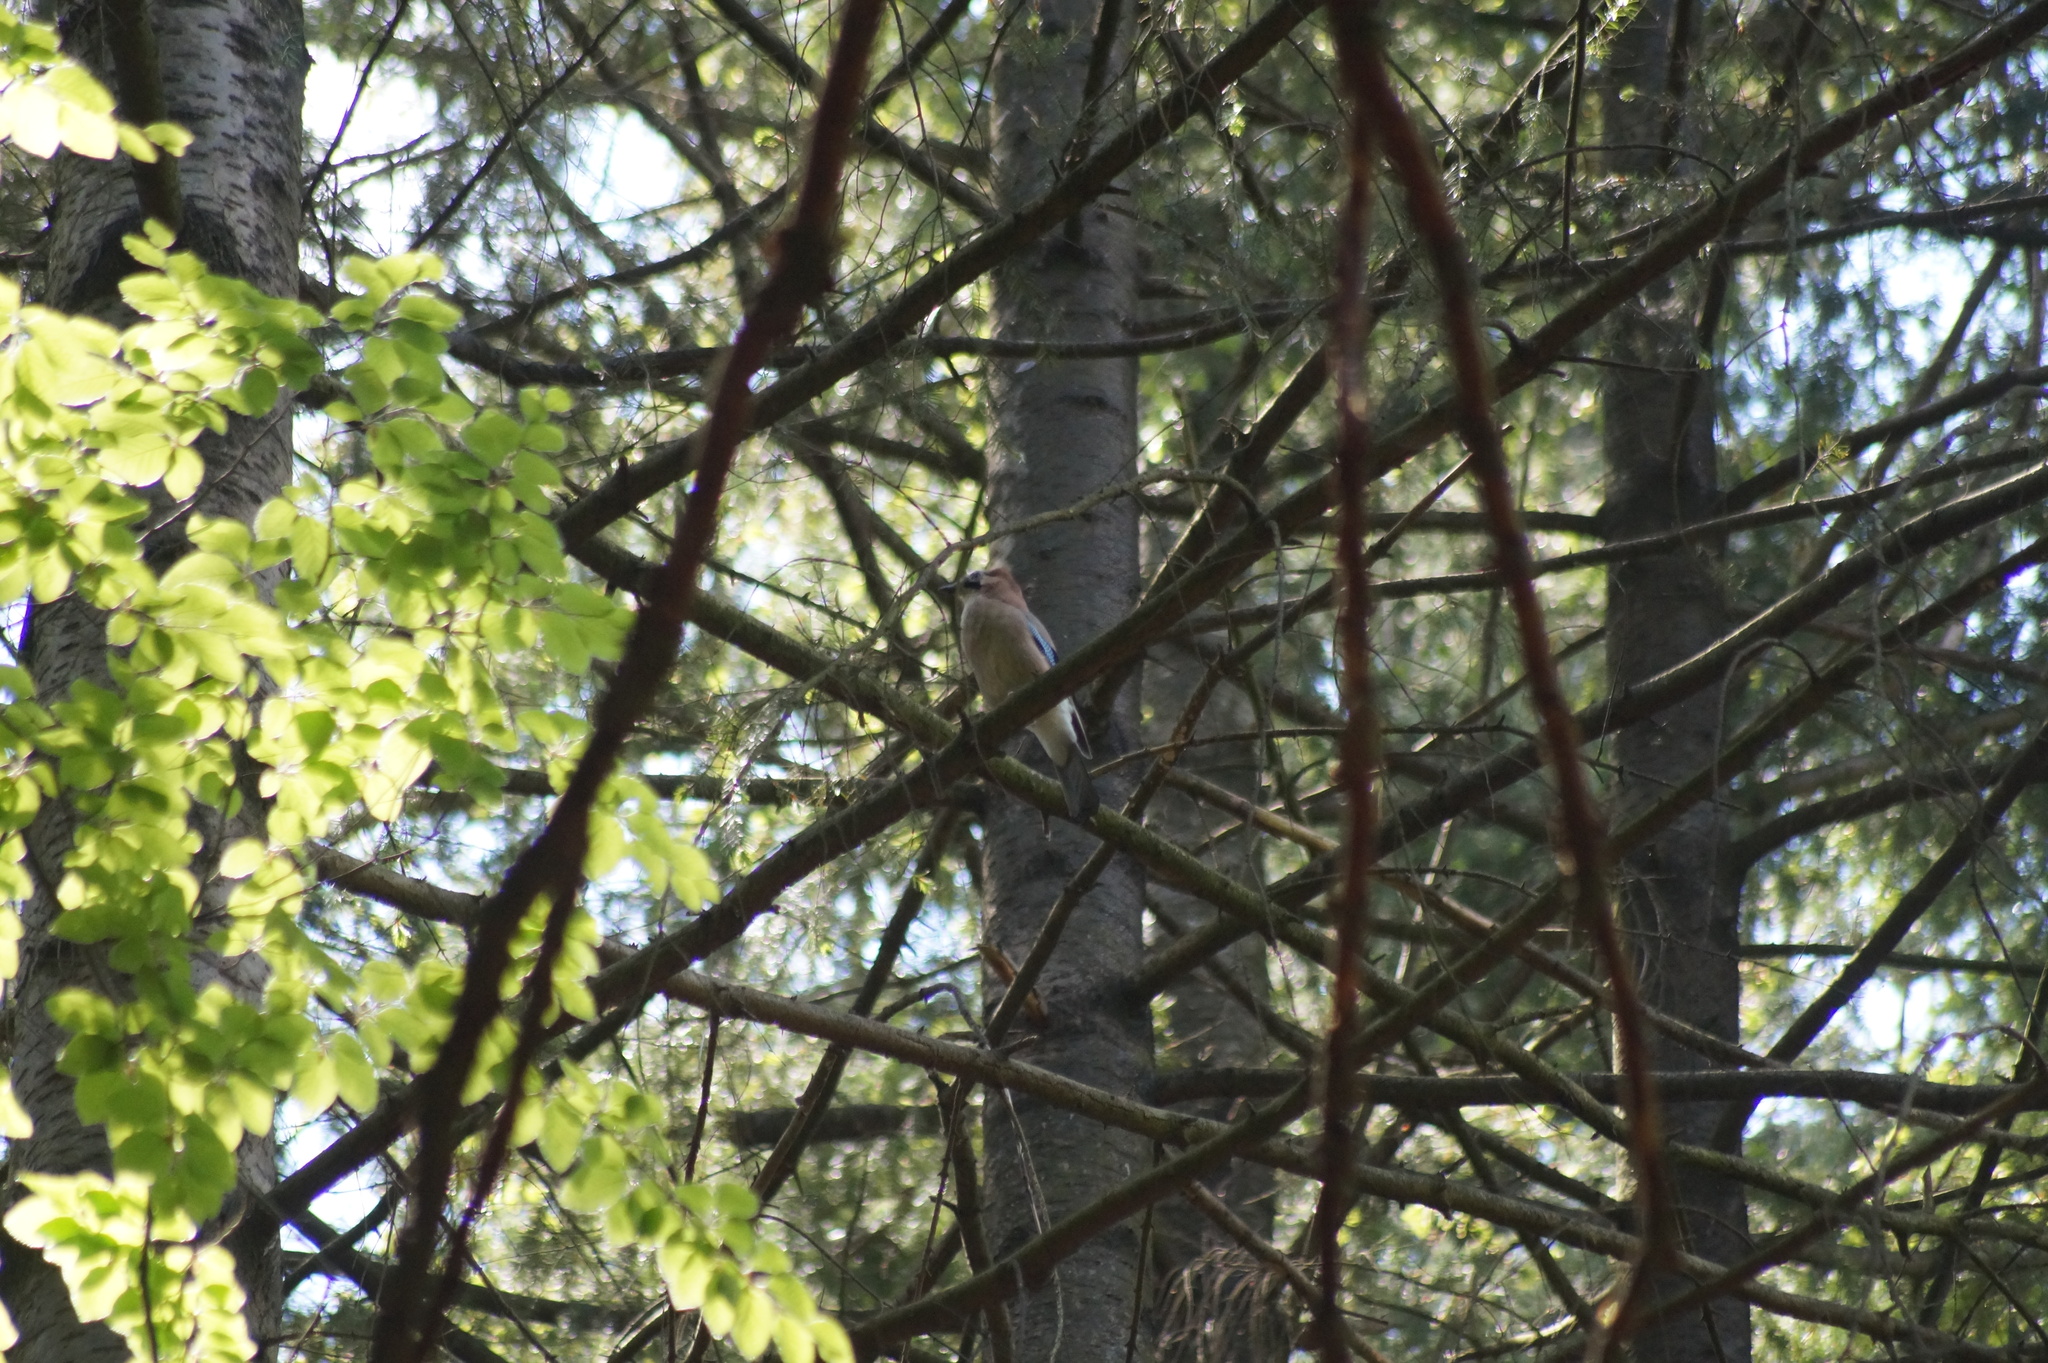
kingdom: Animalia
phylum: Chordata
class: Aves
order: Passeriformes
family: Corvidae
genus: Garrulus
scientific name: Garrulus glandarius
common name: Eurasian jay
